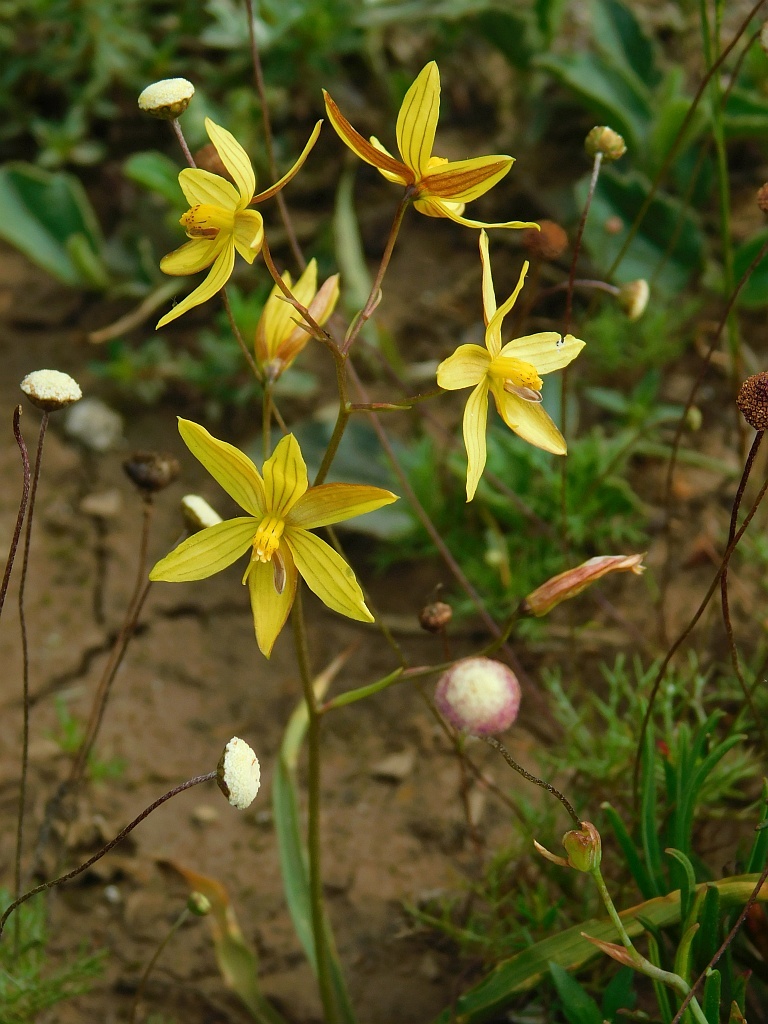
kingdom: Plantae
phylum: Tracheophyta
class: Liliopsida
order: Asparagales
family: Tecophilaeaceae
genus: Cyanella
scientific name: Cyanella lutea
